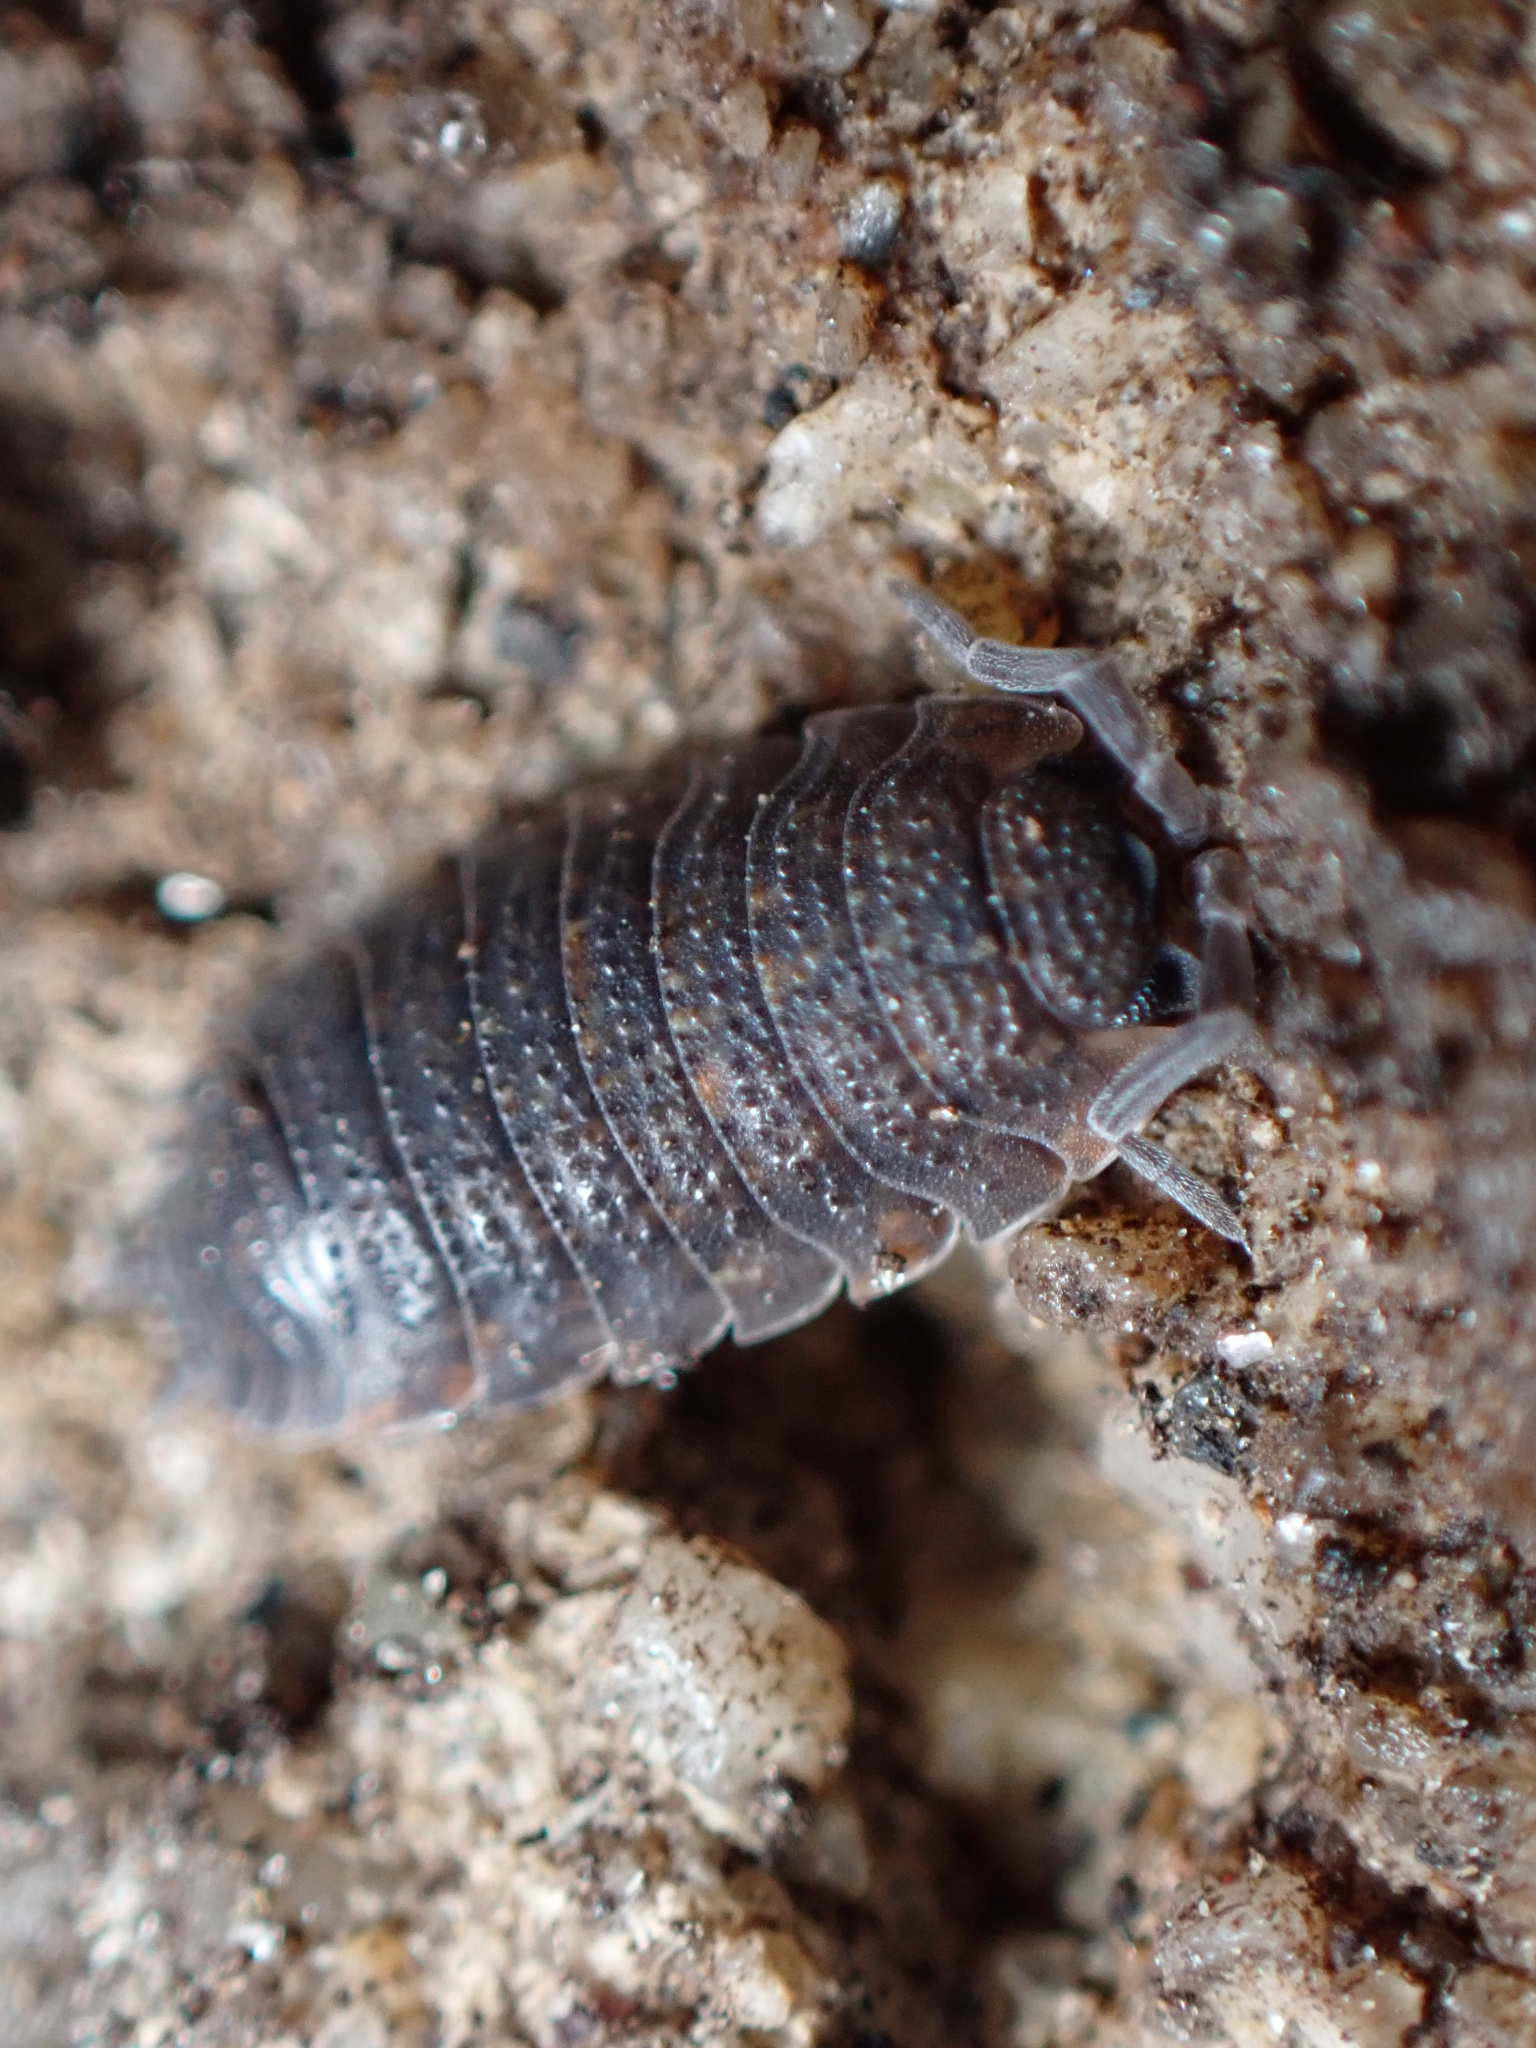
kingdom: Animalia
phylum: Arthropoda
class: Malacostraca
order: Isopoda
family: Porcellionidae
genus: Porcellio
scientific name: Porcellio scaber
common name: Common rough woodlouse
